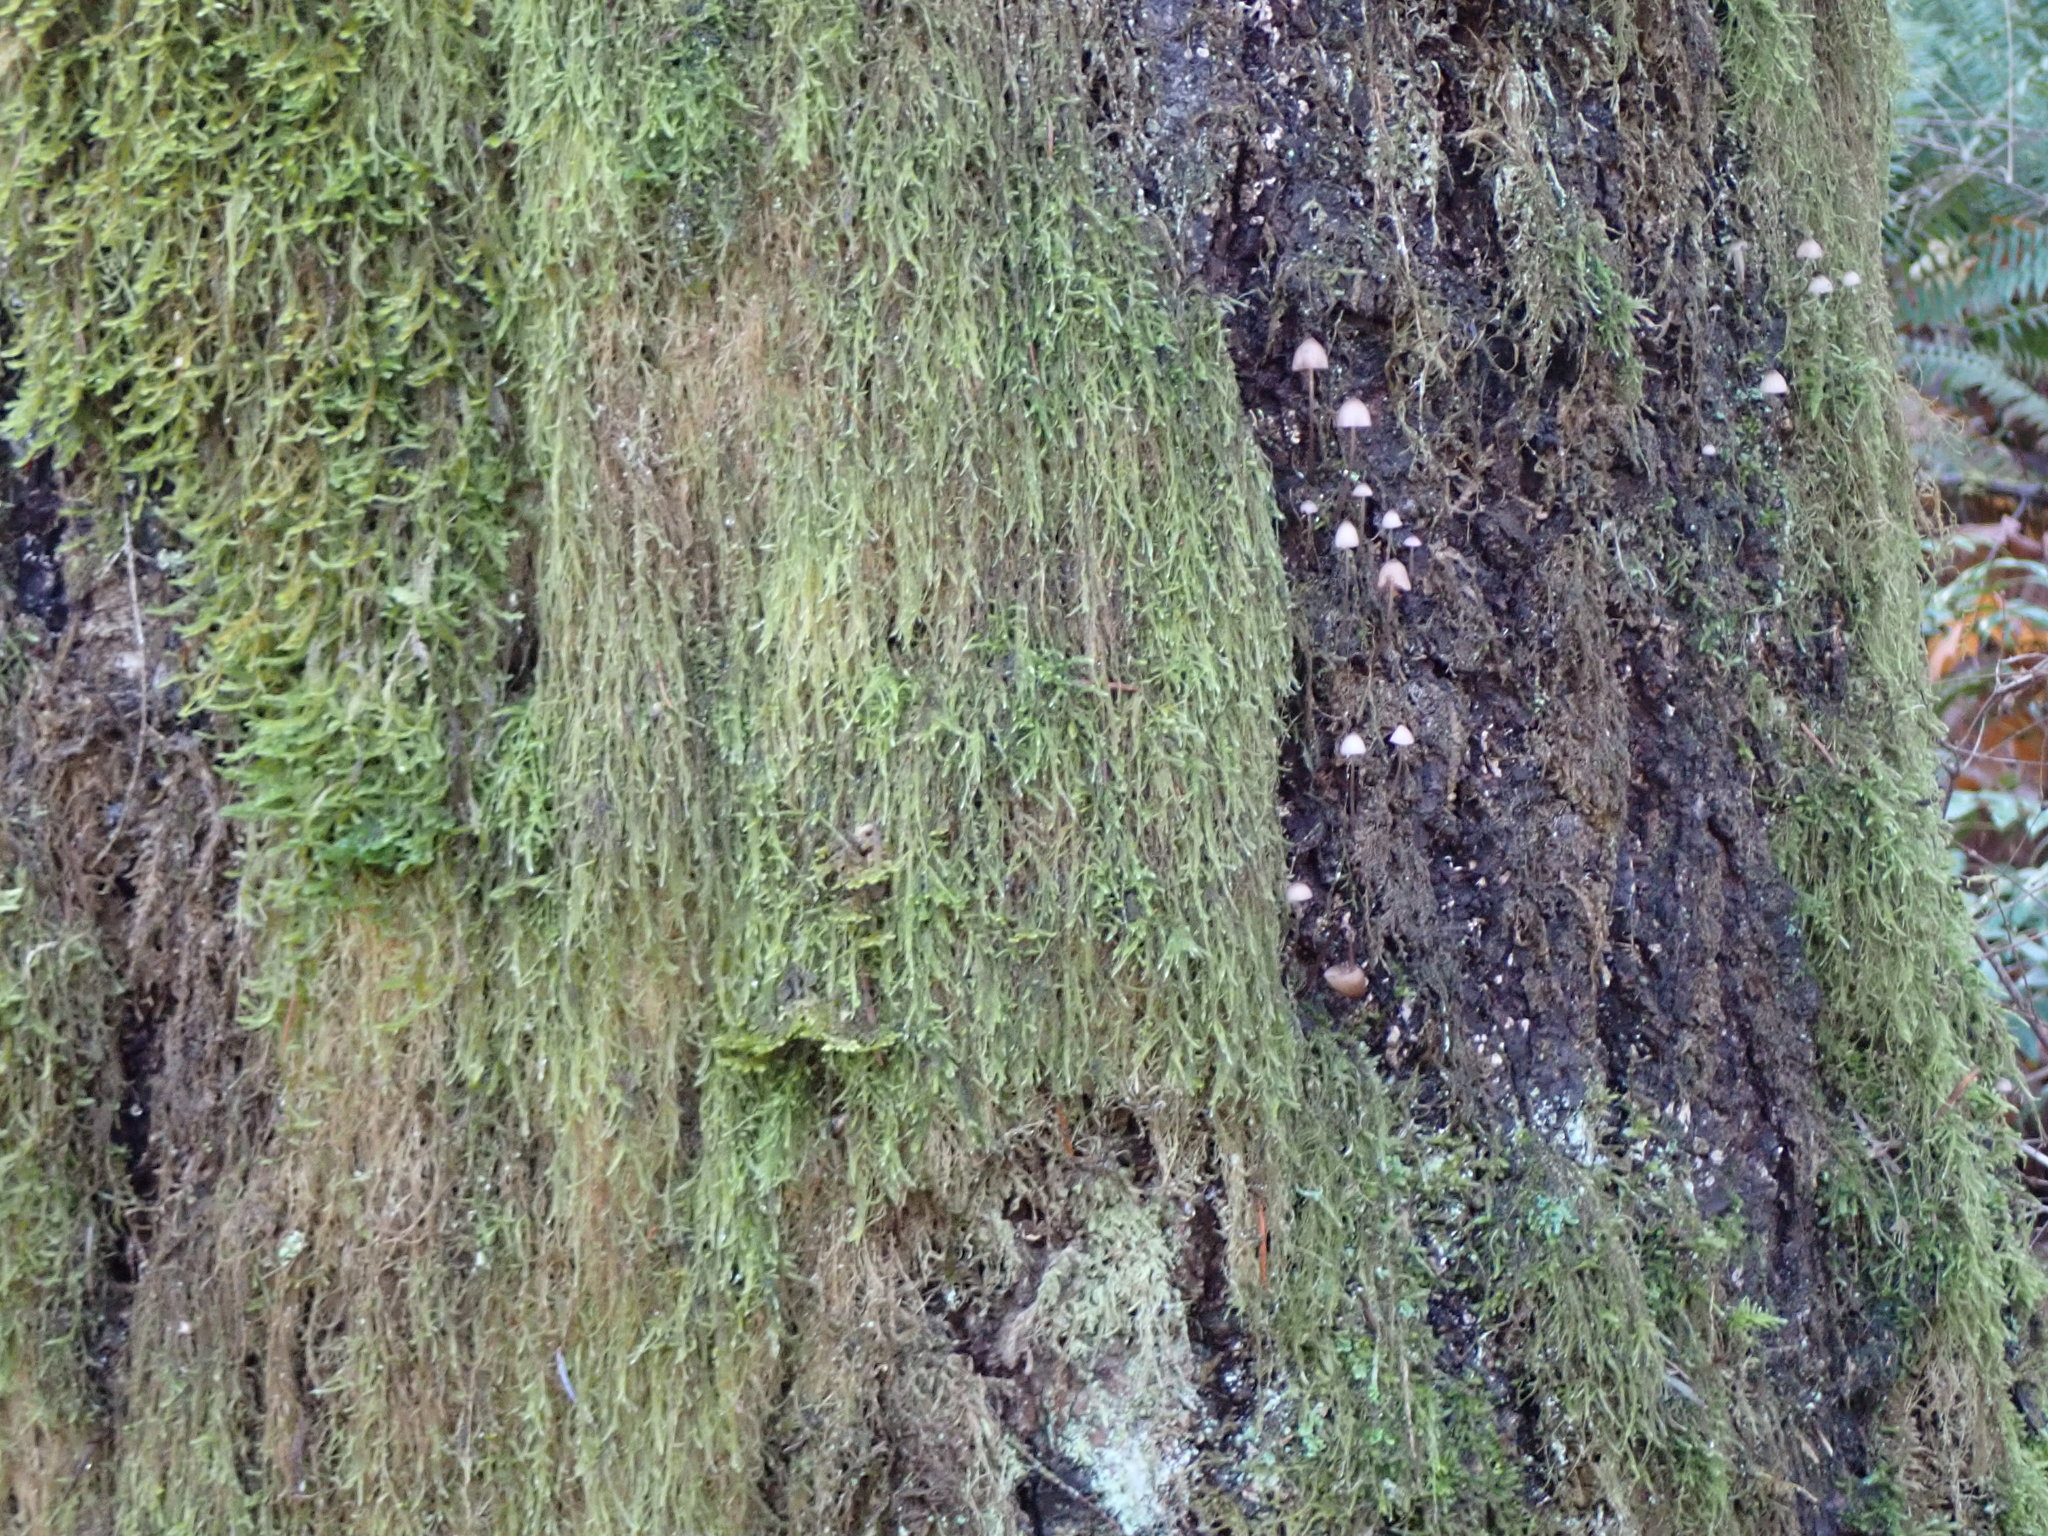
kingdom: Plantae
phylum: Bryophyta
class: Bryopsida
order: Hypnales
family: Lembophyllaceae
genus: Pseudisothecium
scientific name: Pseudisothecium stoloniferum
